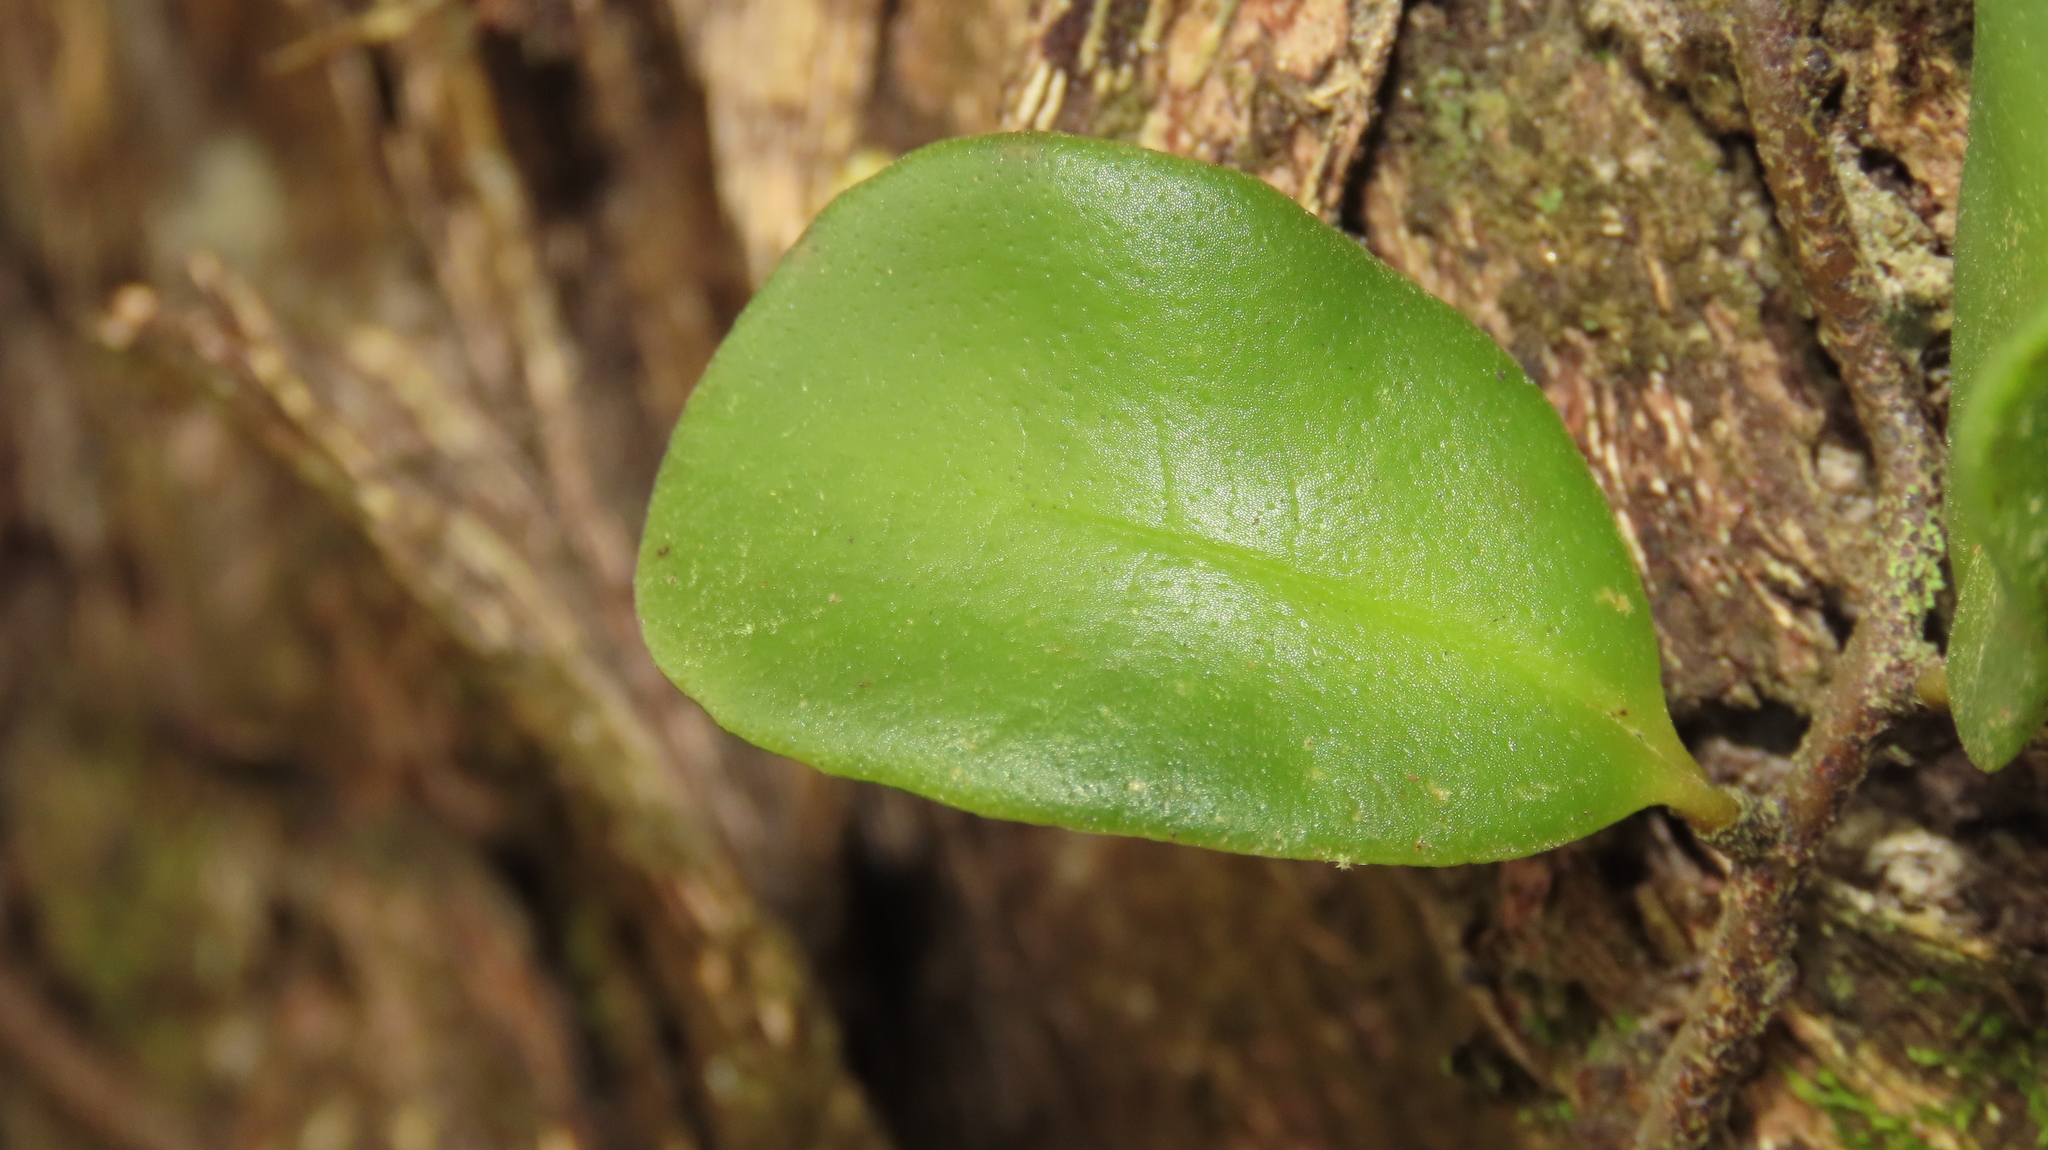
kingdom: Plantae
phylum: Tracheophyta
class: Polypodiopsida
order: Polypodiales
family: Polypodiaceae
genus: Pyrrosia
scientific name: Pyrrosia lanceolata
